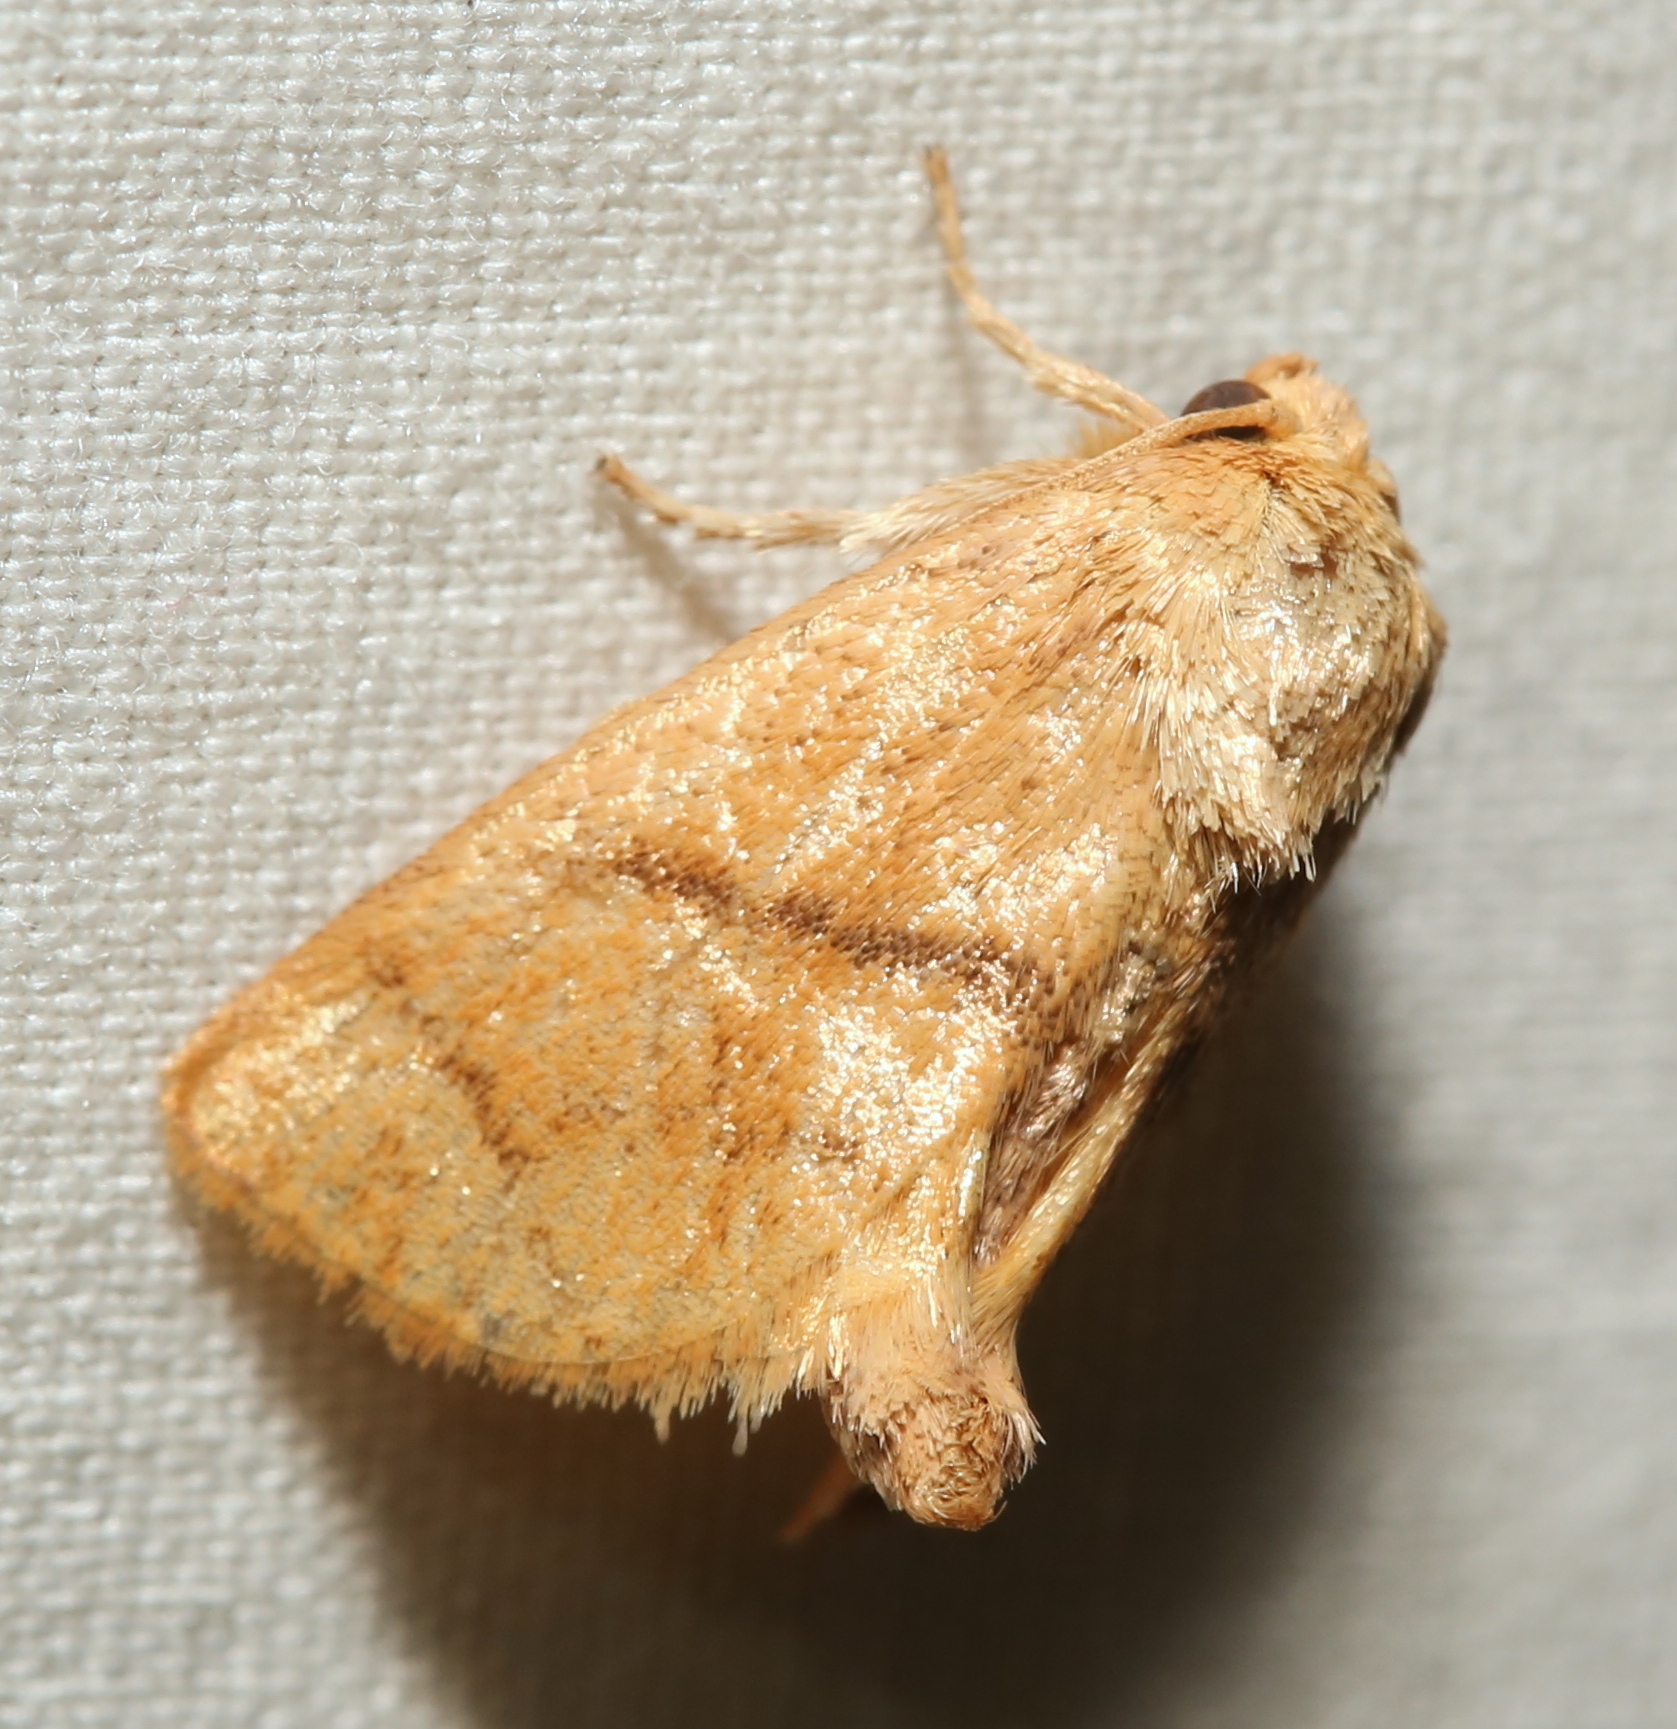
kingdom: Animalia
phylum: Arthropoda
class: Insecta
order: Lepidoptera
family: Limacodidae
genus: Apoda
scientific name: Apoda y-inversa
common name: Yellow-collared slug moth
